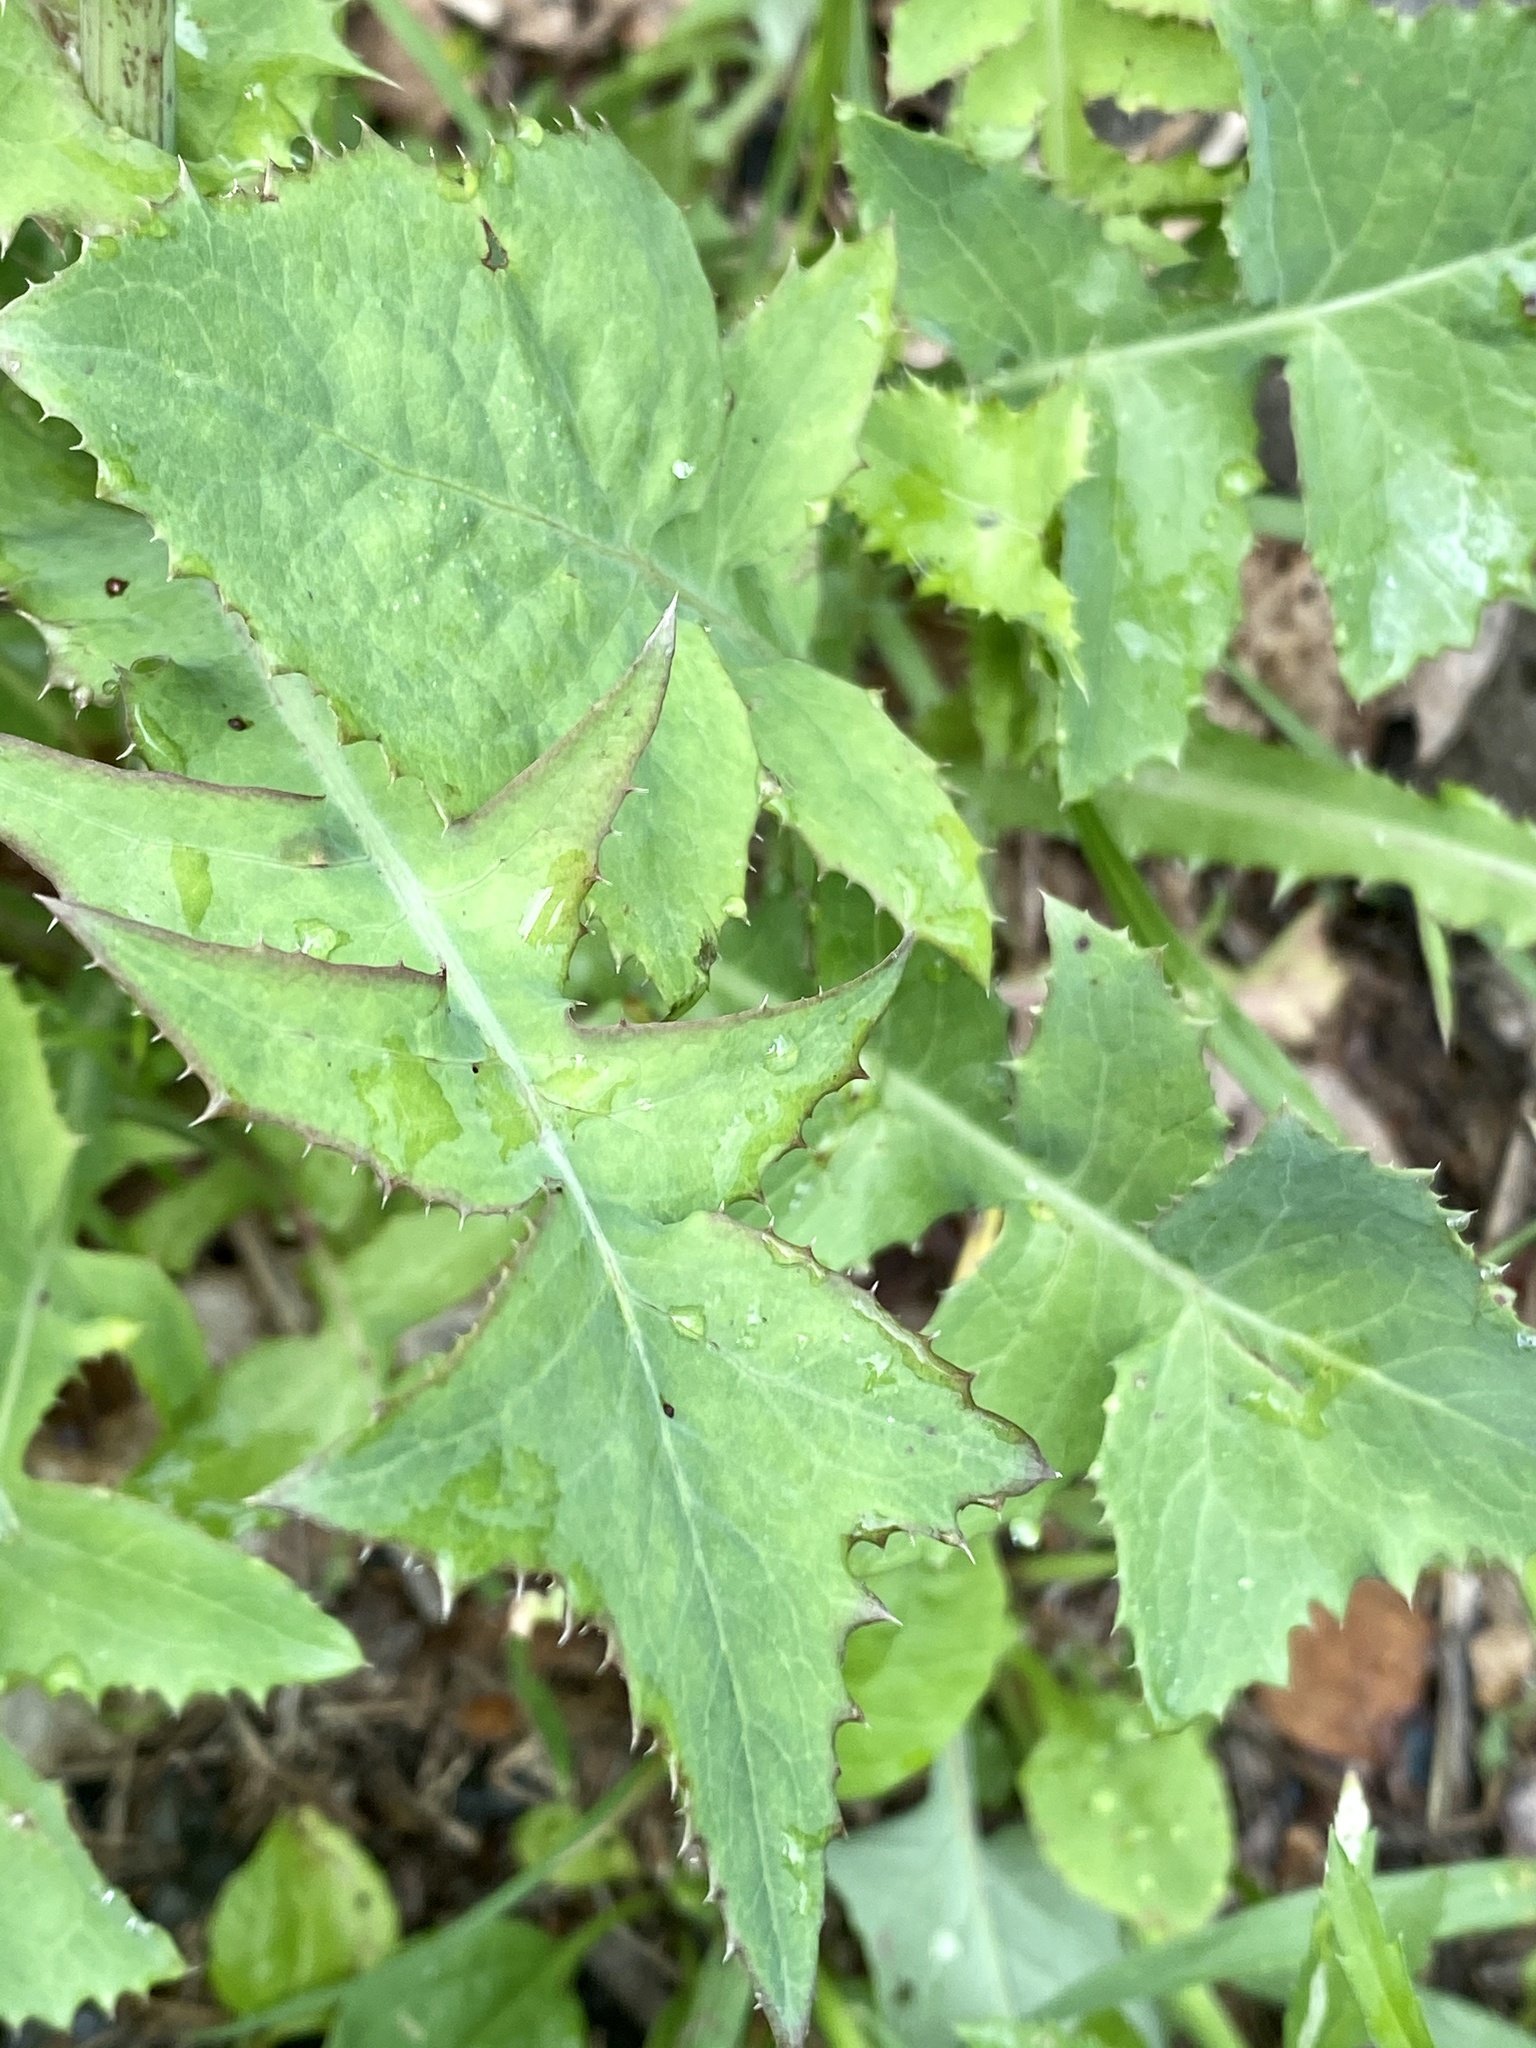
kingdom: Plantae
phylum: Tracheophyta
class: Magnoliopsida
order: Asterales
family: Asteraceae
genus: Sonchus
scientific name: Sonchus oleraceus
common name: Common sowthistle
